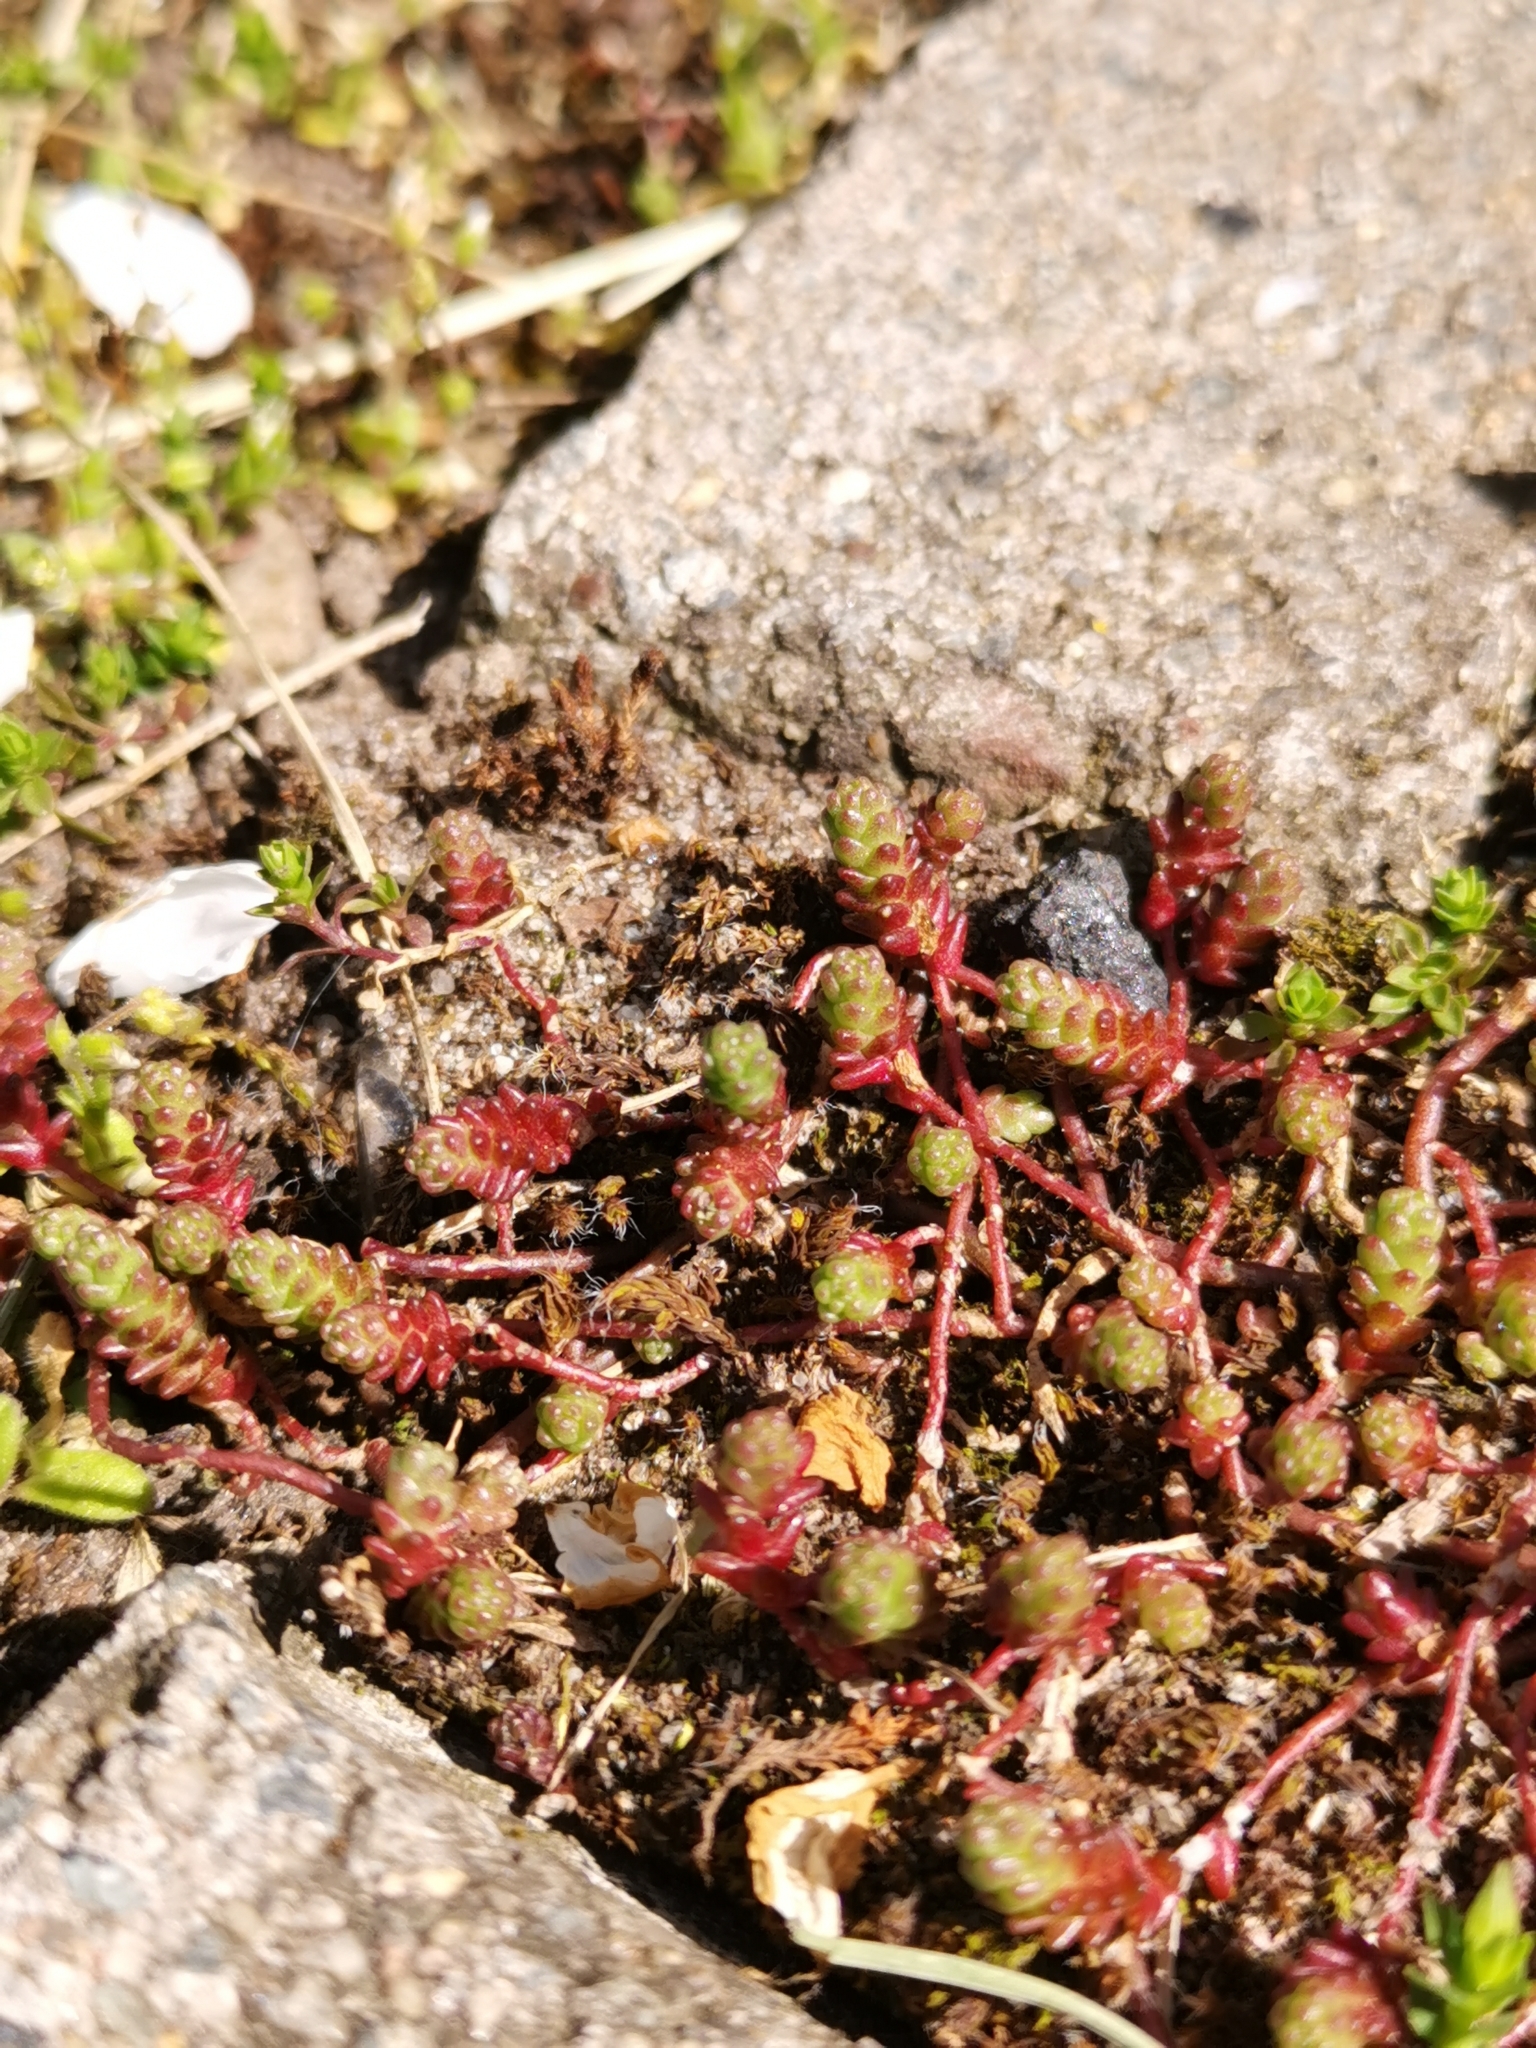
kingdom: Plantae
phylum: Tracheophyta
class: Magnoliopsida
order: Saxifragales
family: Crassulaceae
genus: Sedum
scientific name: Sedum acre
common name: Biting stonecrop
